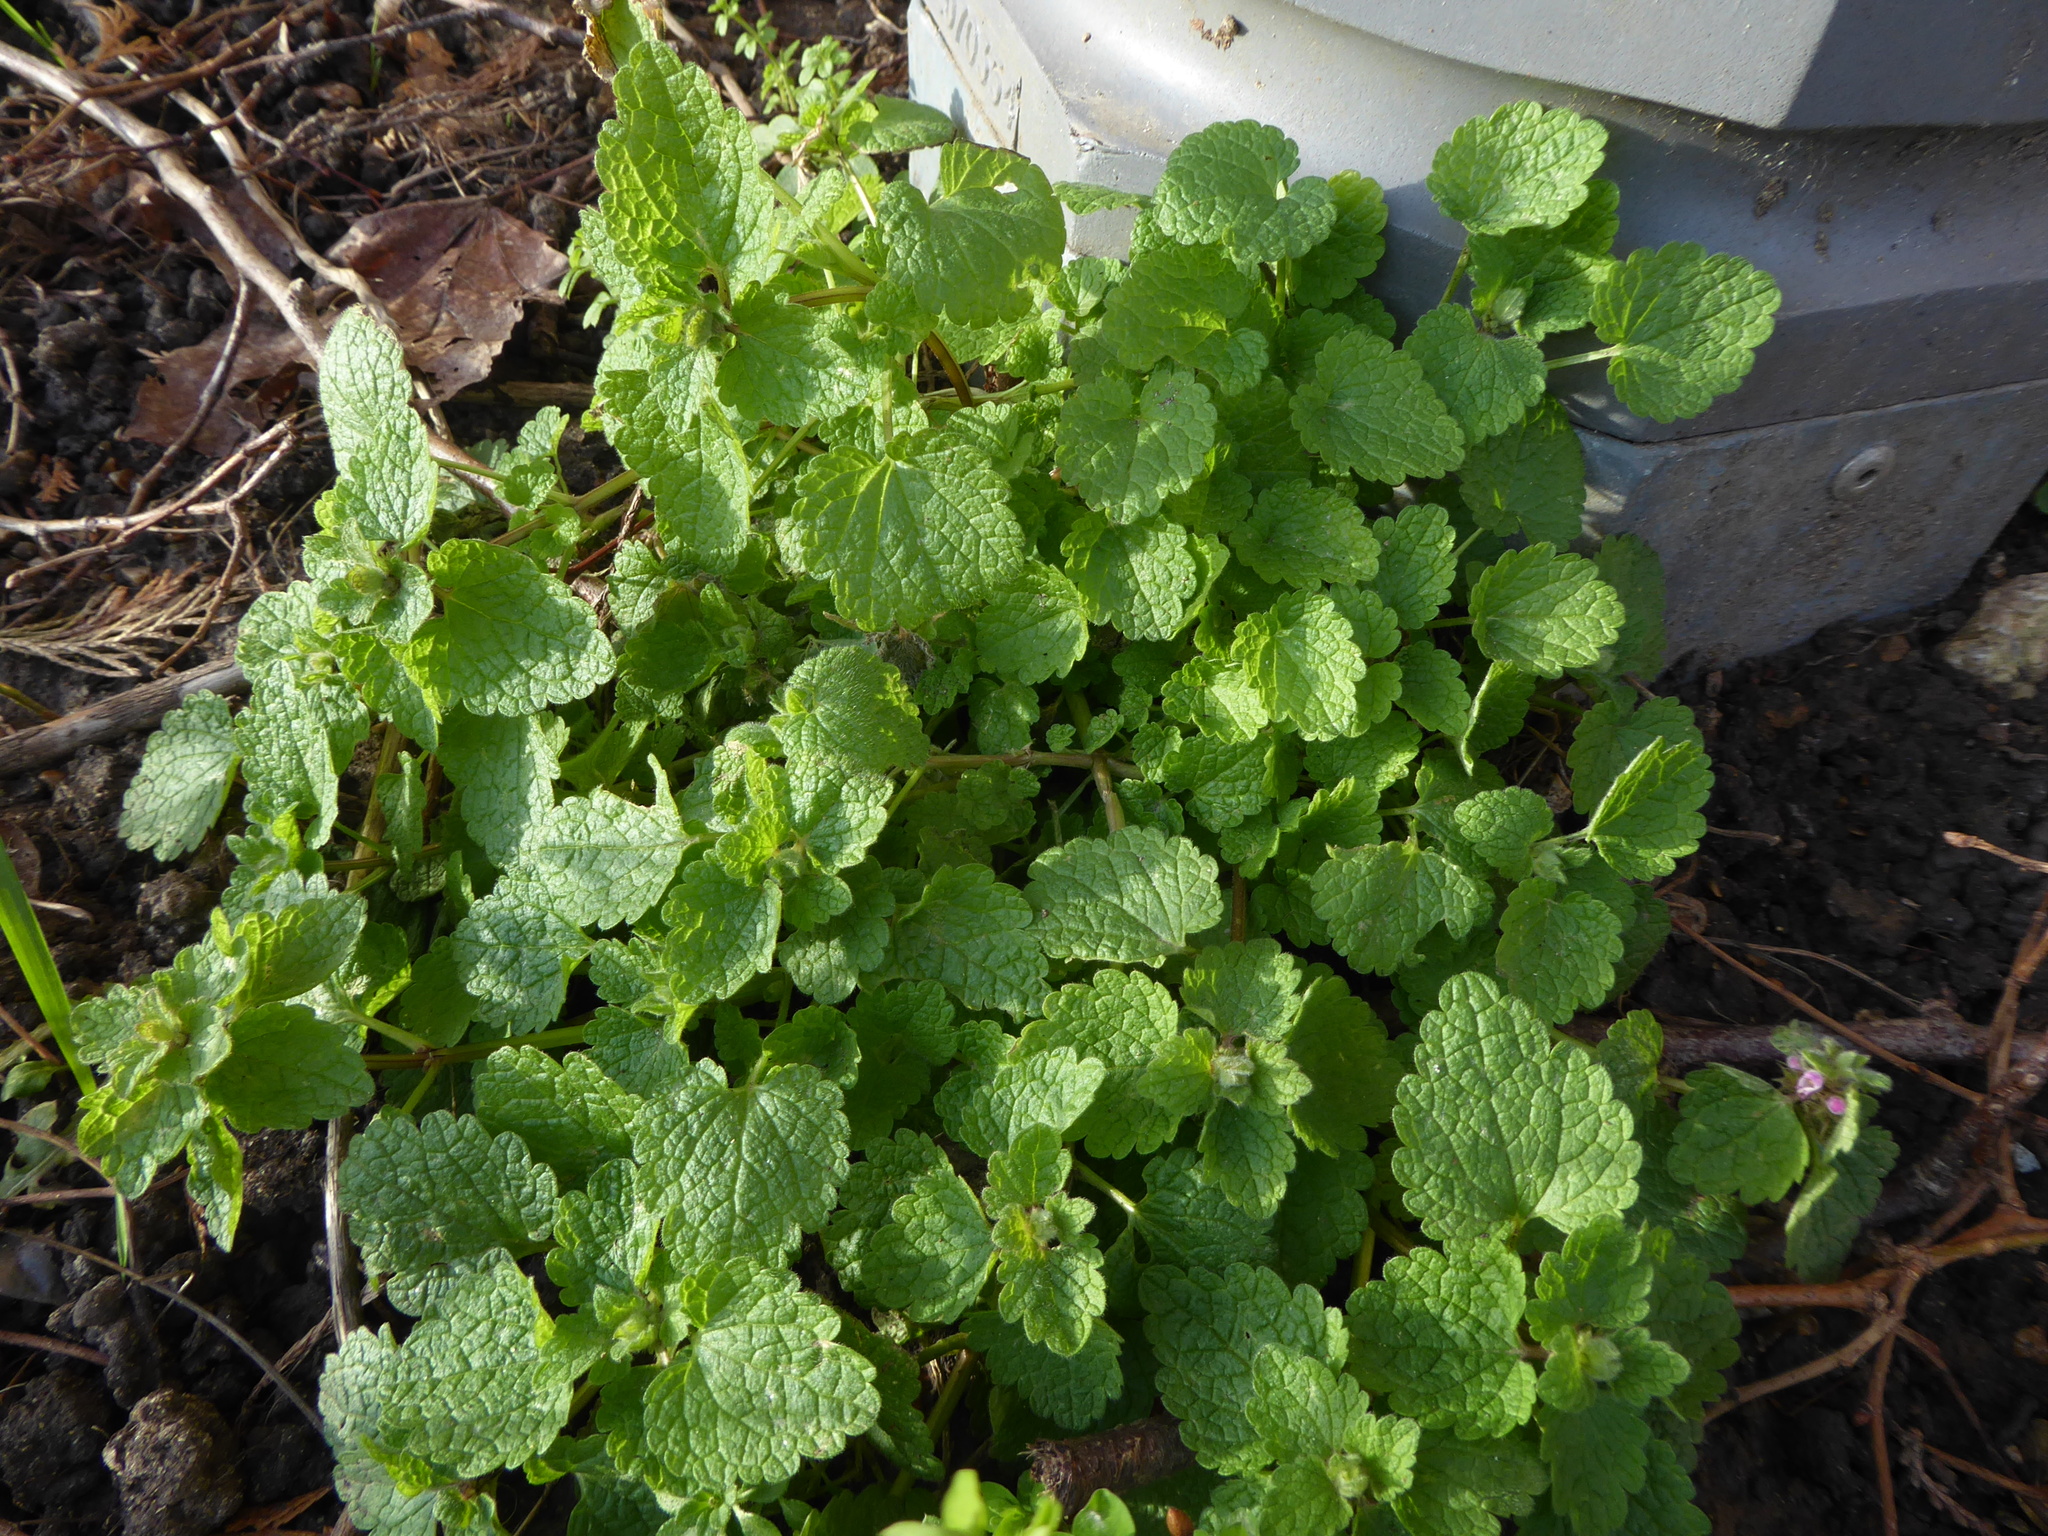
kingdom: Plantae
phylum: Tracheophyta
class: Magnoliopsida
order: Lamiales
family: Lamiaceae
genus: Lamium
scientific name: Lamium purpureum
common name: Red dead-nettle
